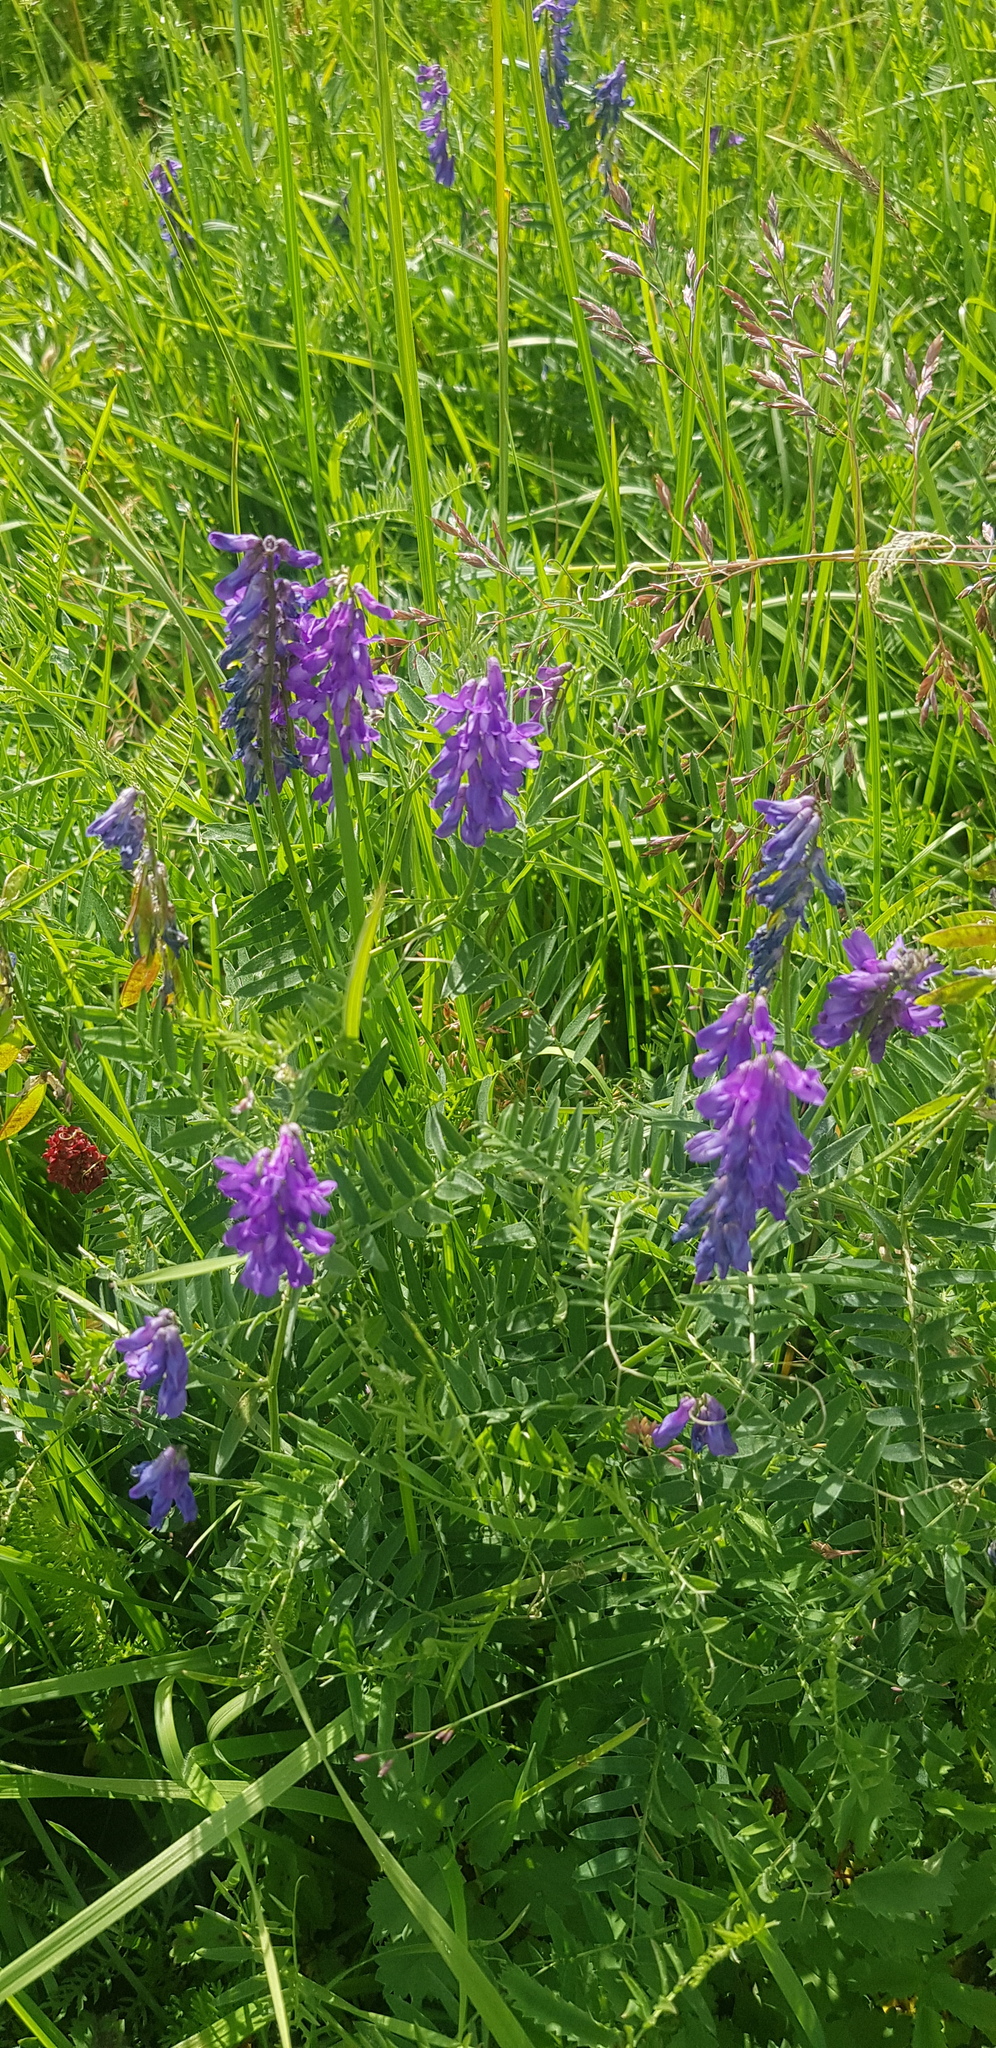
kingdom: Plantae
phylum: Tracheophyta
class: Magnoliopsida
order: Fabales
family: Fabaceae
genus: Vicia
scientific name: Vicia cracca
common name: Bird vetch
